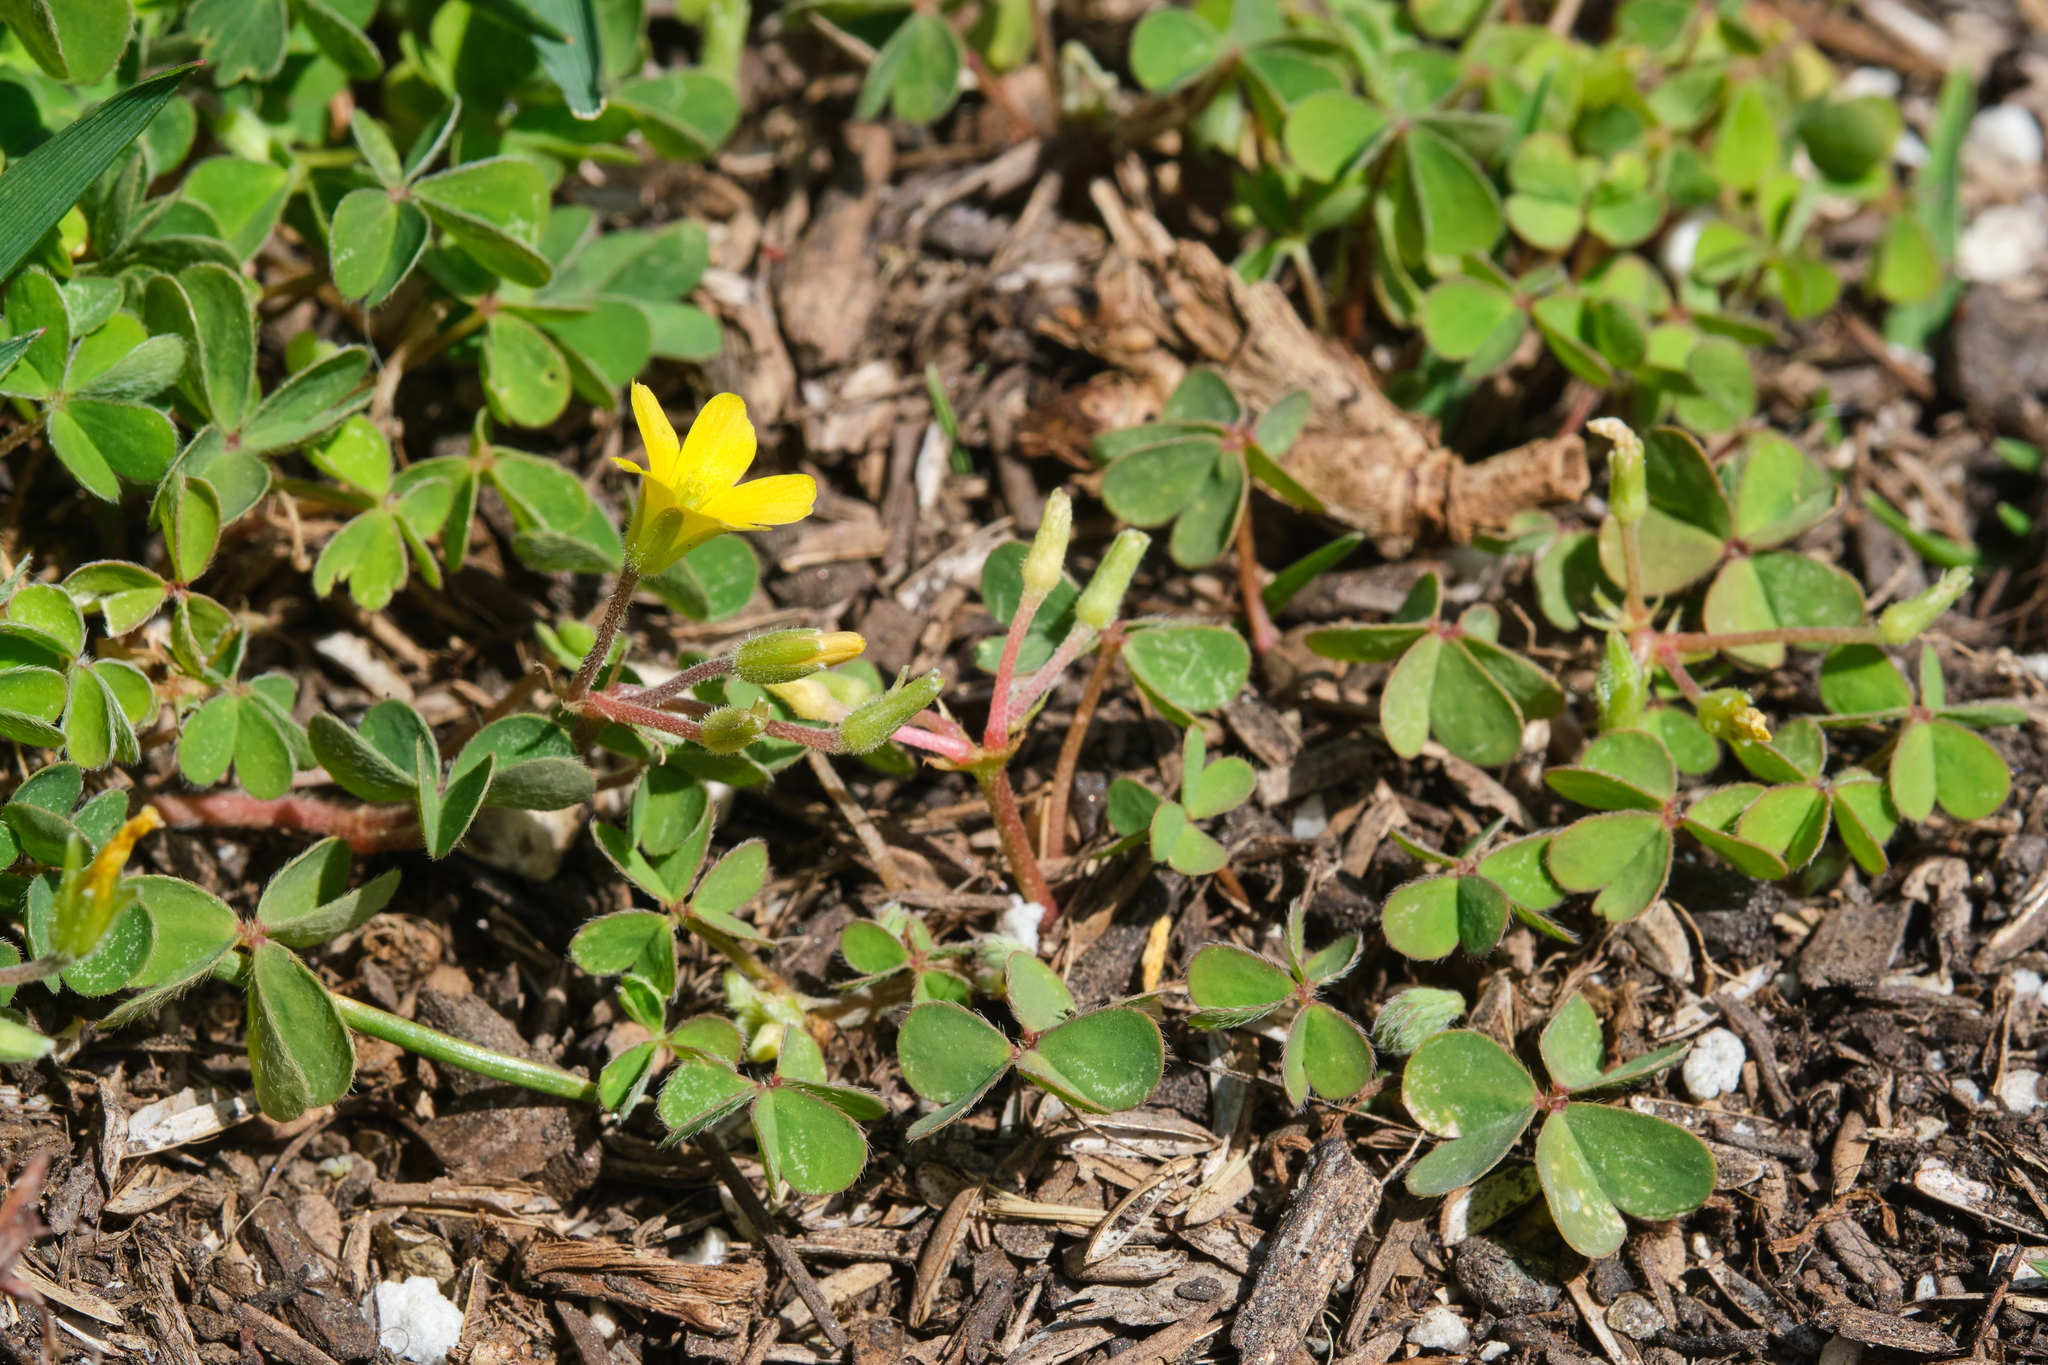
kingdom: Plantae
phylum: Tracheophyta
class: Magnoliopsida
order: Oxalidales
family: Oxalidaceae
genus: Oxalis
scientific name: Oxalis corniculata
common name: Procumbent yellow-sorrel
